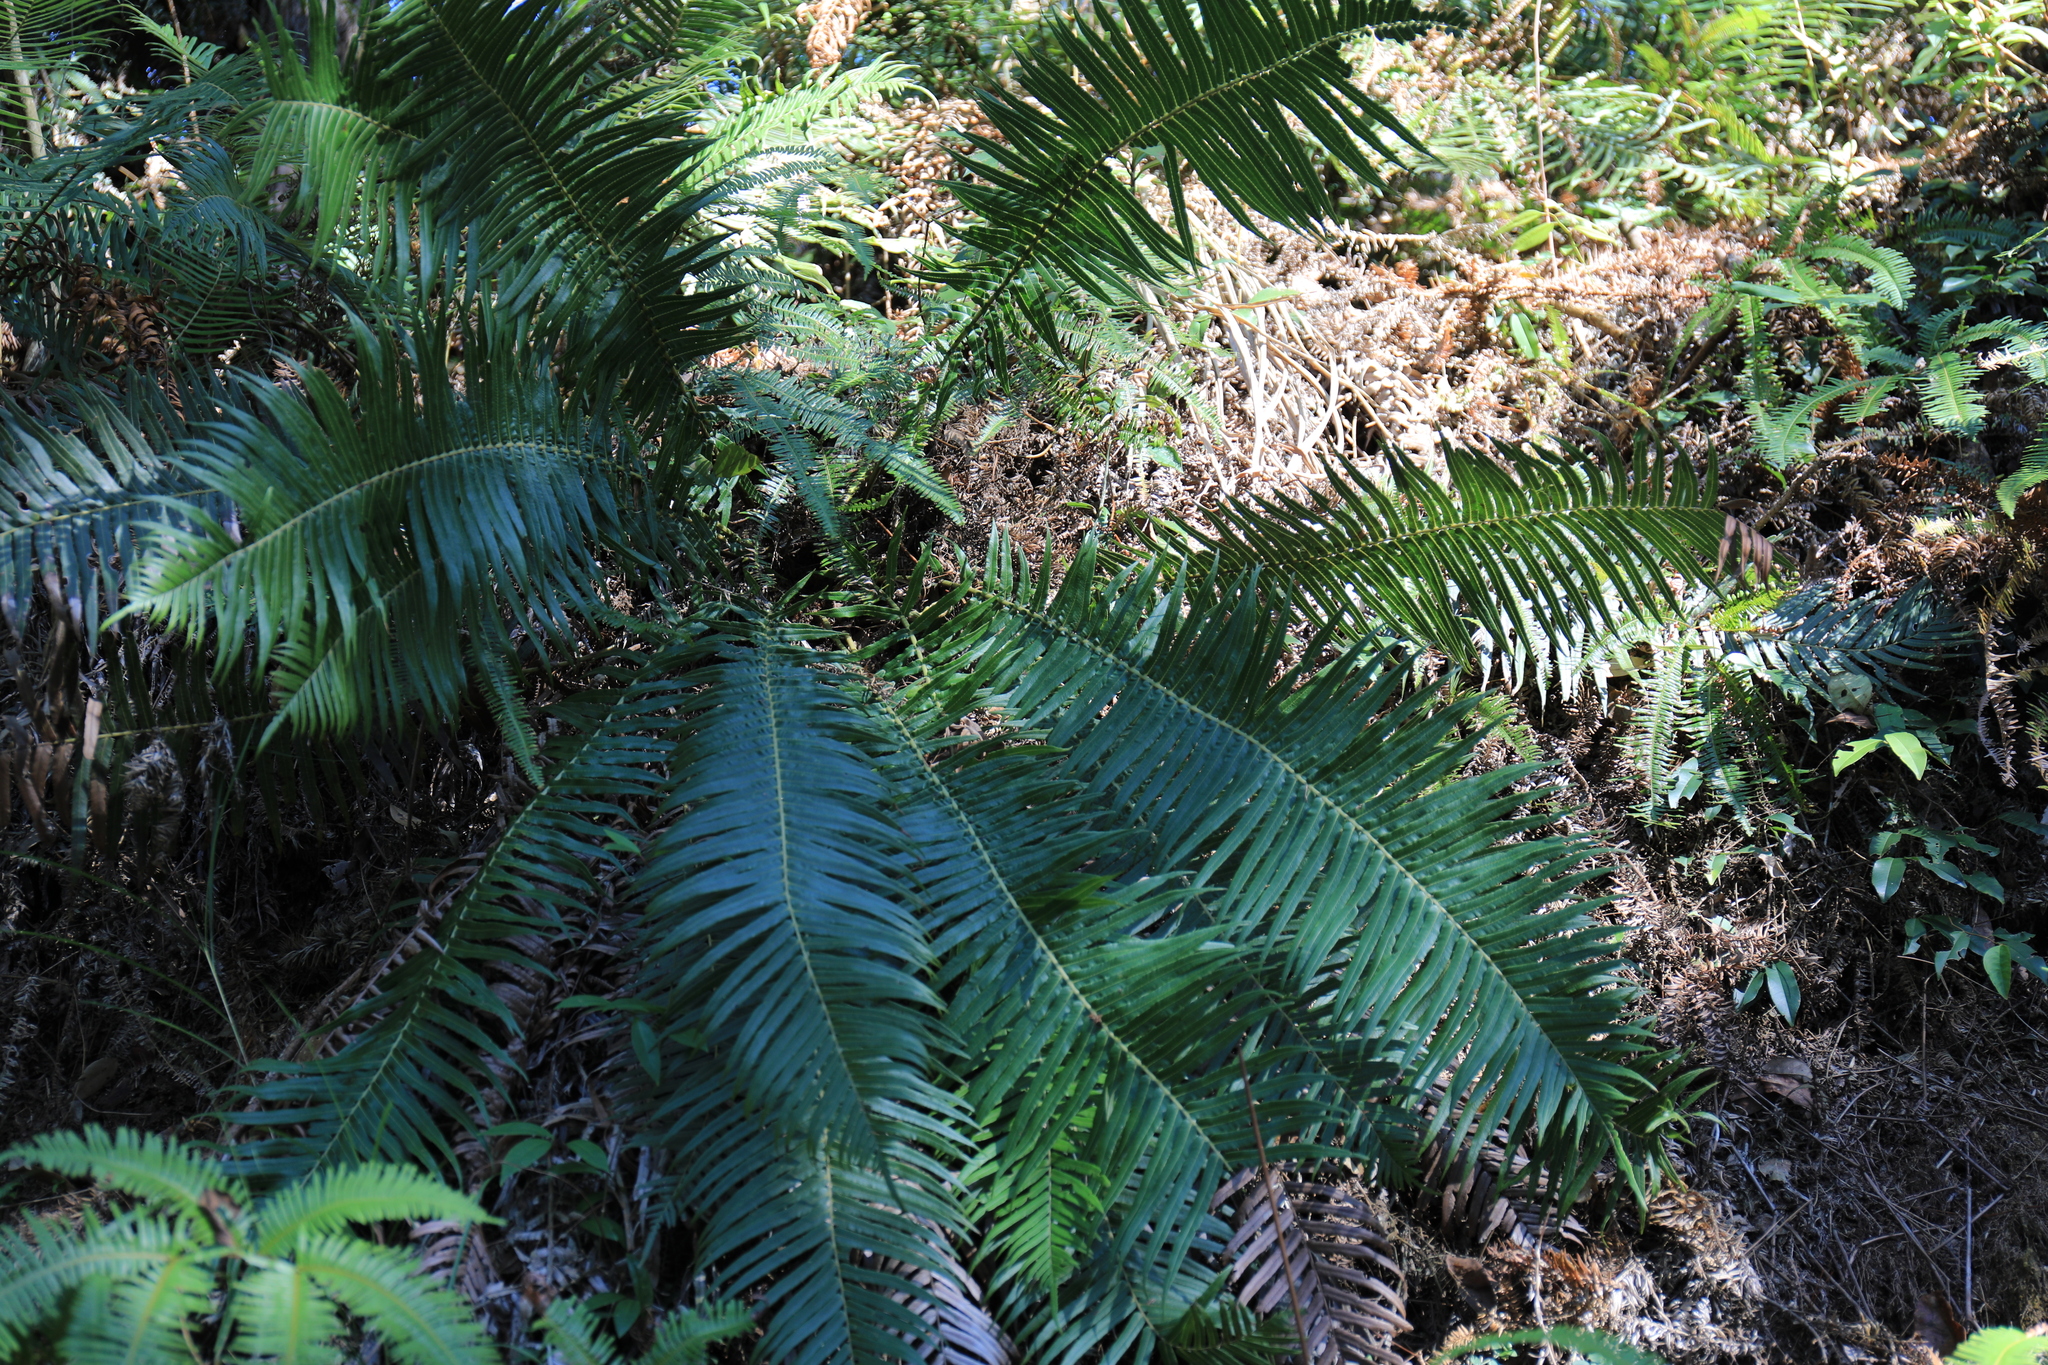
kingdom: Plantae
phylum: Tracheophyta
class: Polypodiopsida
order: Polypodiales
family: Blechnaceae
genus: Brainea
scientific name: Brainea insignis
